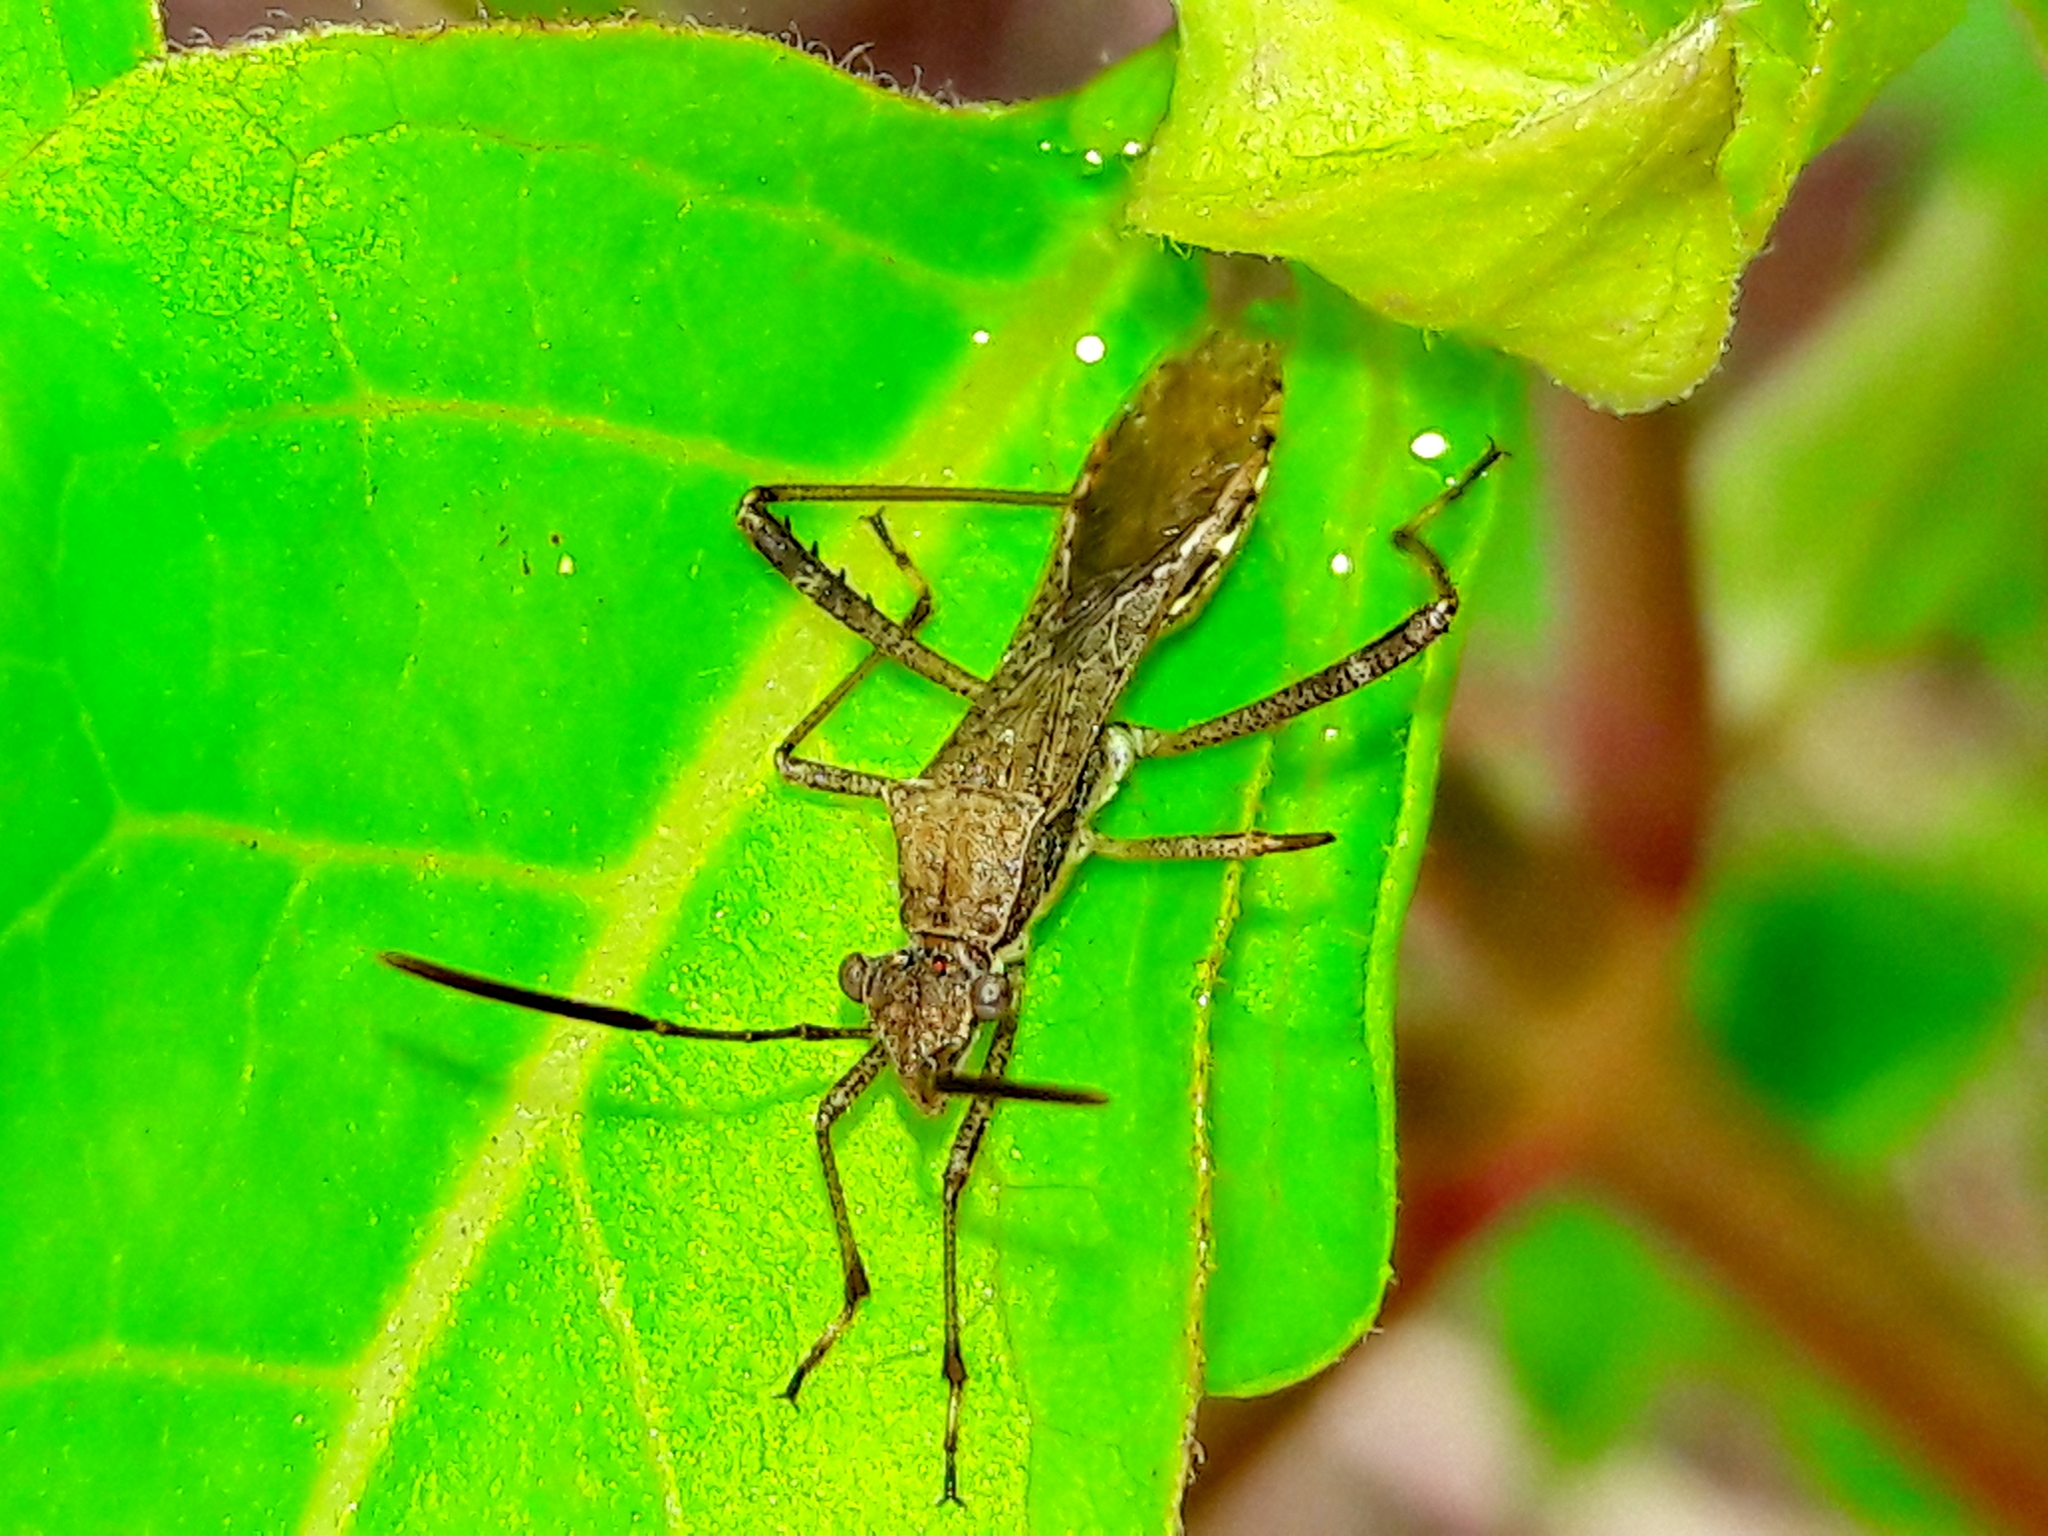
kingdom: Animalia
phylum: Arthropoda
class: Insecta
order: Hemiptera
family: Alydidae
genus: Neomegalotomus
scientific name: Neomegalotomus parvus
